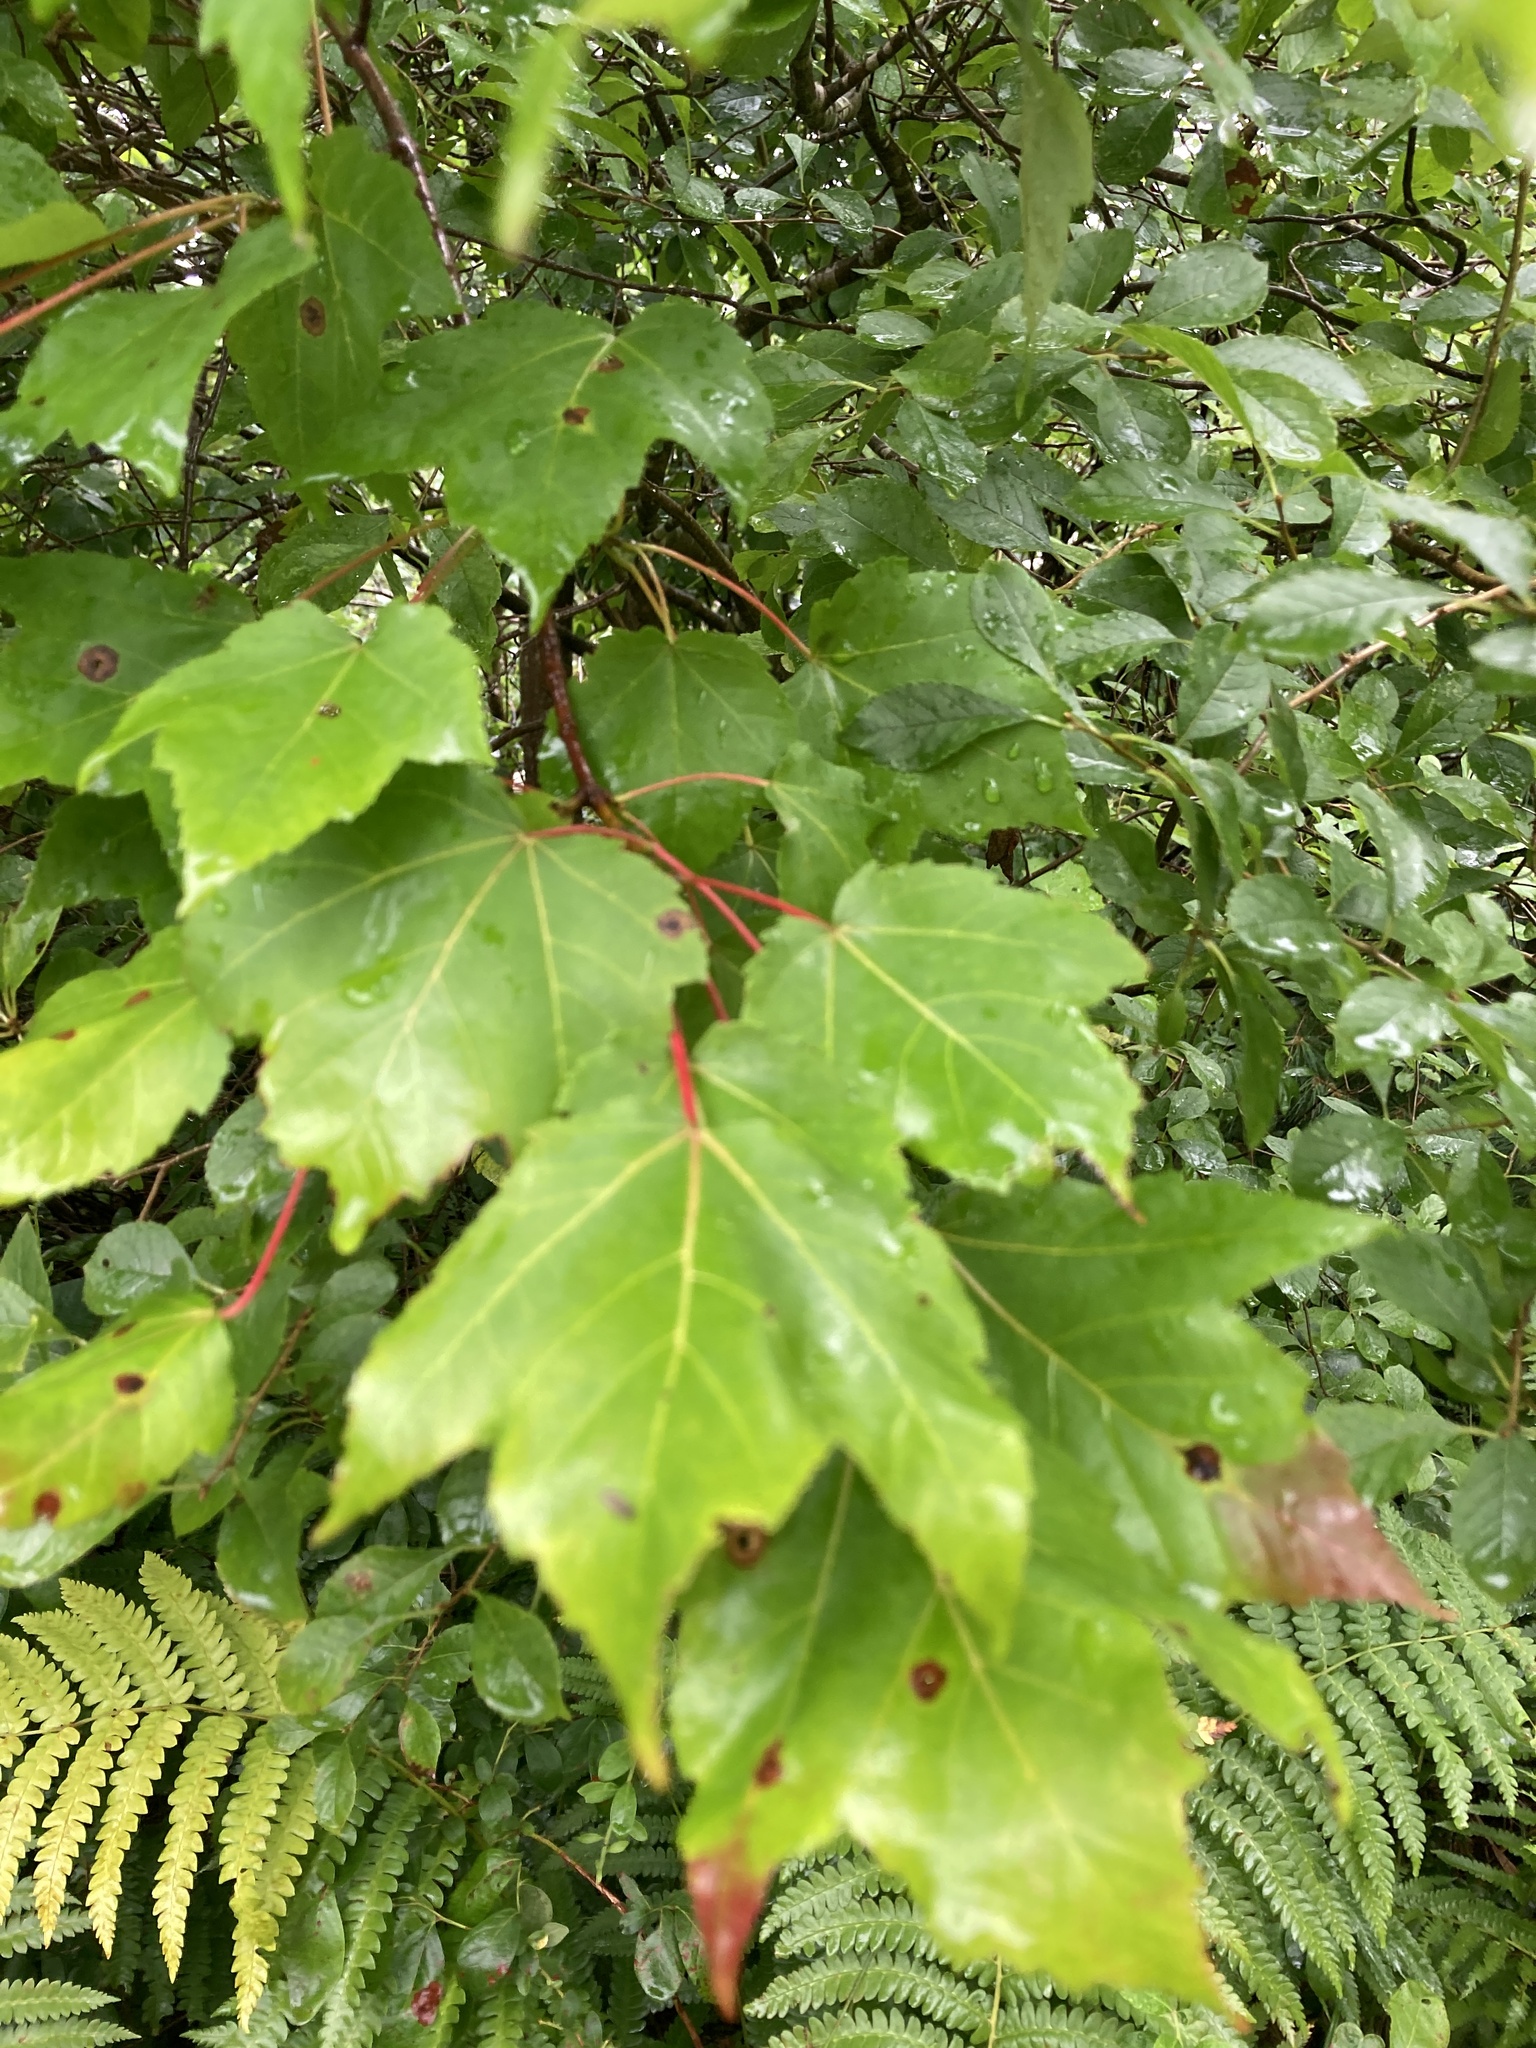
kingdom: Plantae
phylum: Tracheophyta
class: Magnoliopsida
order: Sapindales
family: Sapindaceae
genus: Acer
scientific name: Acer rubrum
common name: Red maple
